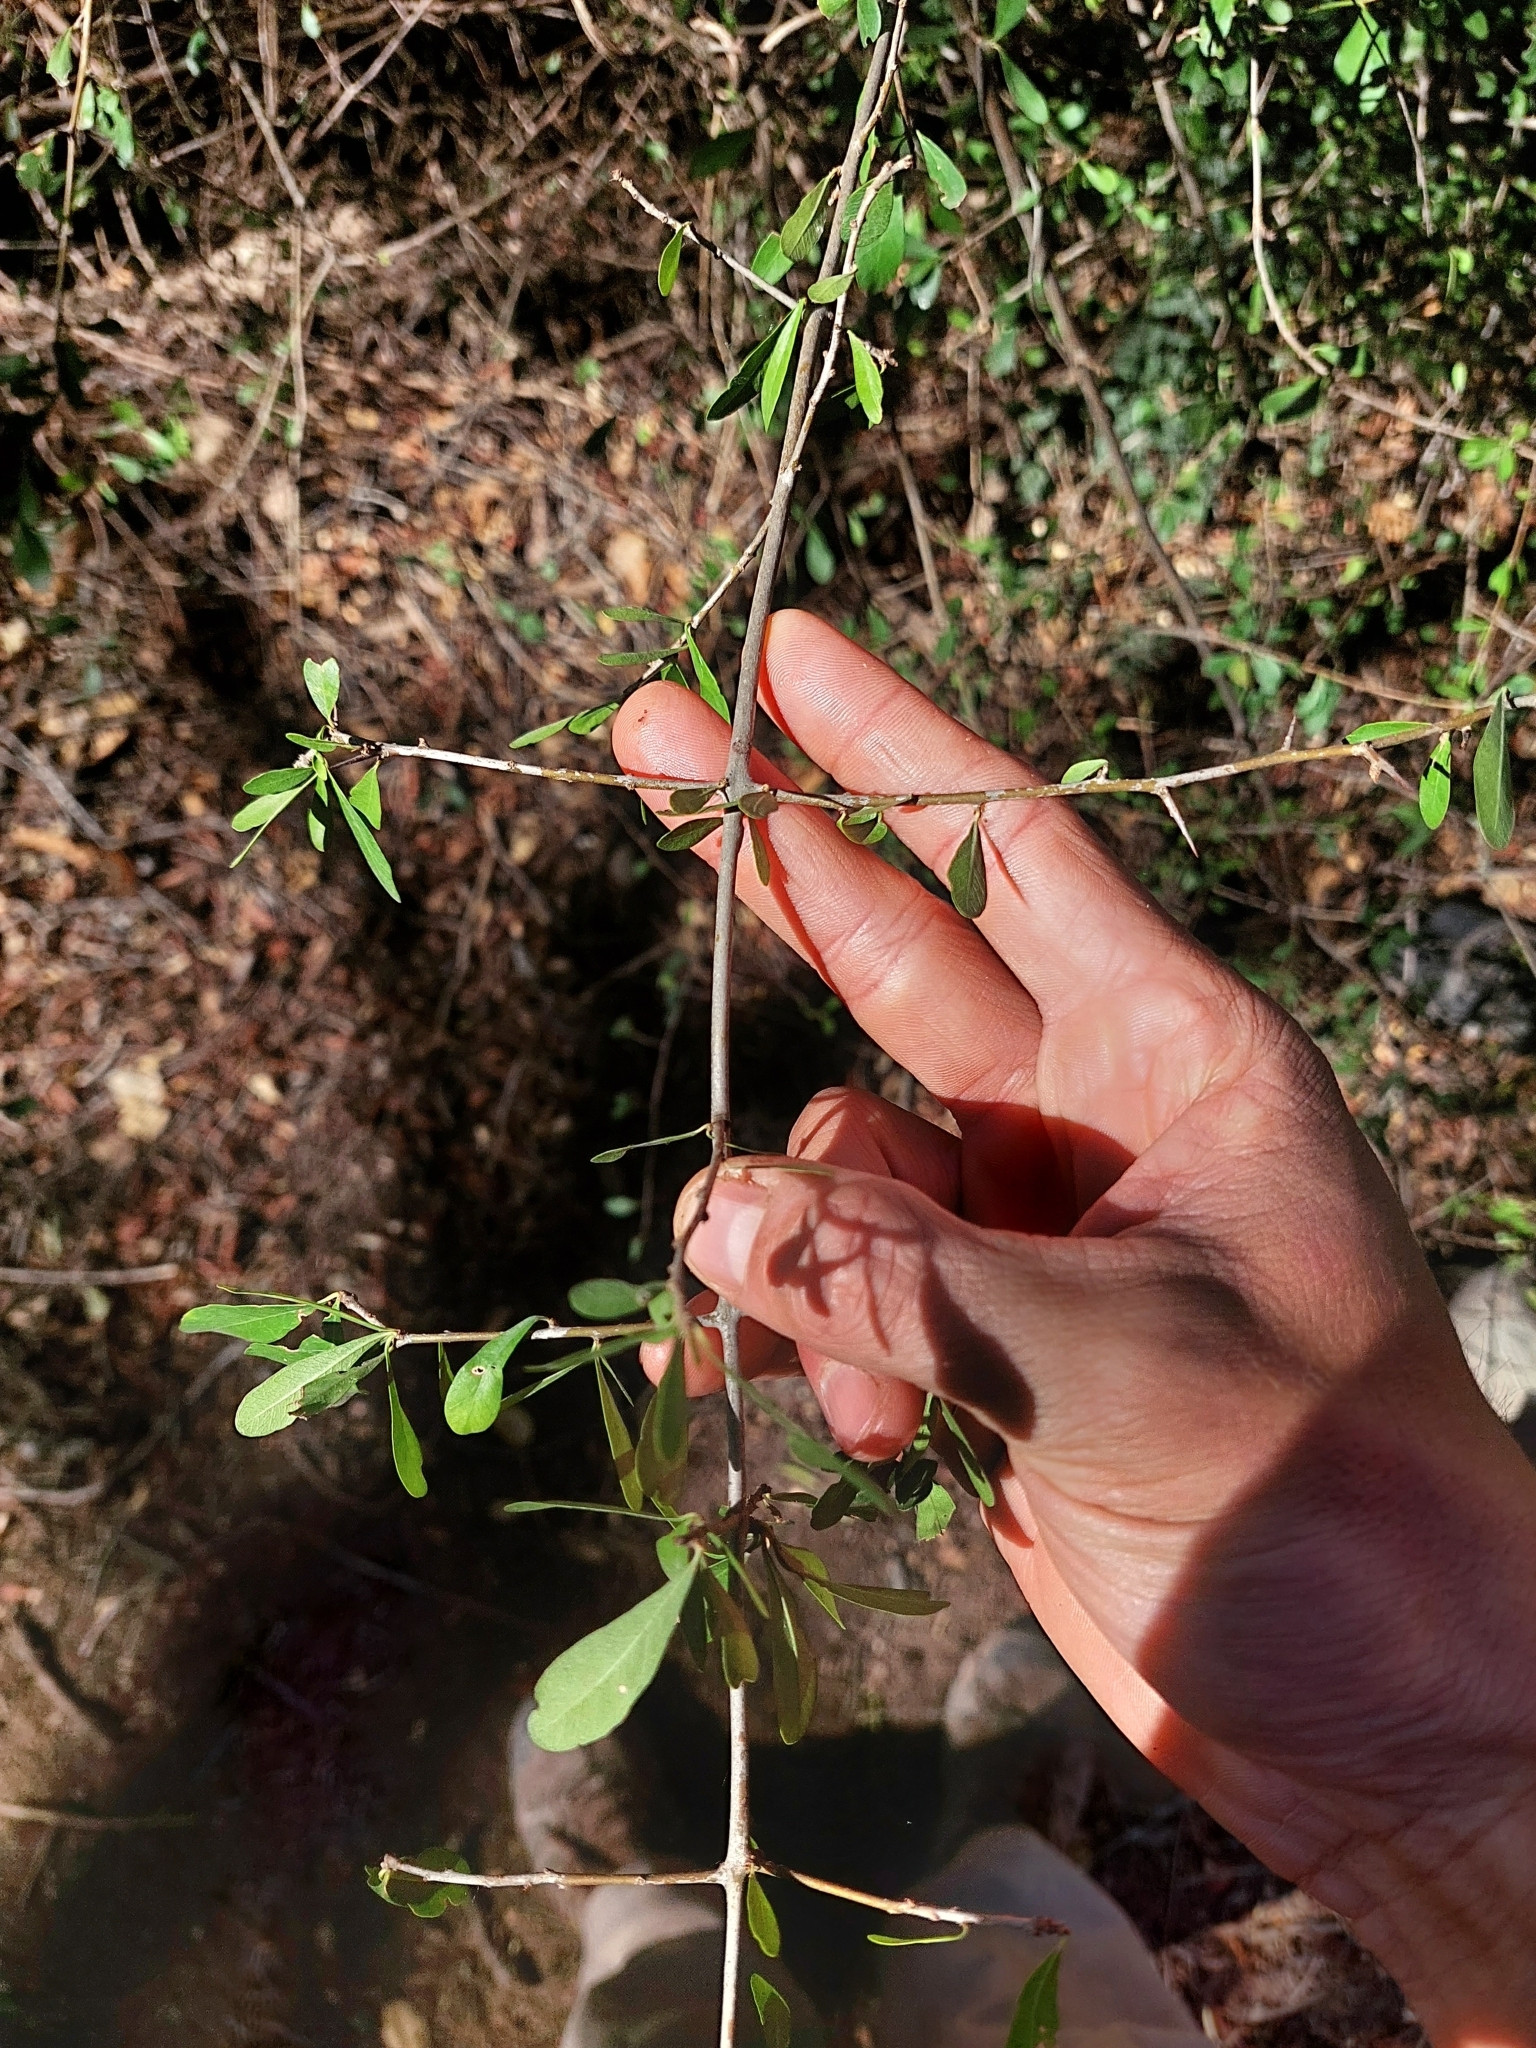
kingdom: Plantae
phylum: Tracheophyta
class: Magnoliopsida
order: Lamiales
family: Bignoniaceae
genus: Tabebuia
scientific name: Tabebuia nodosa
